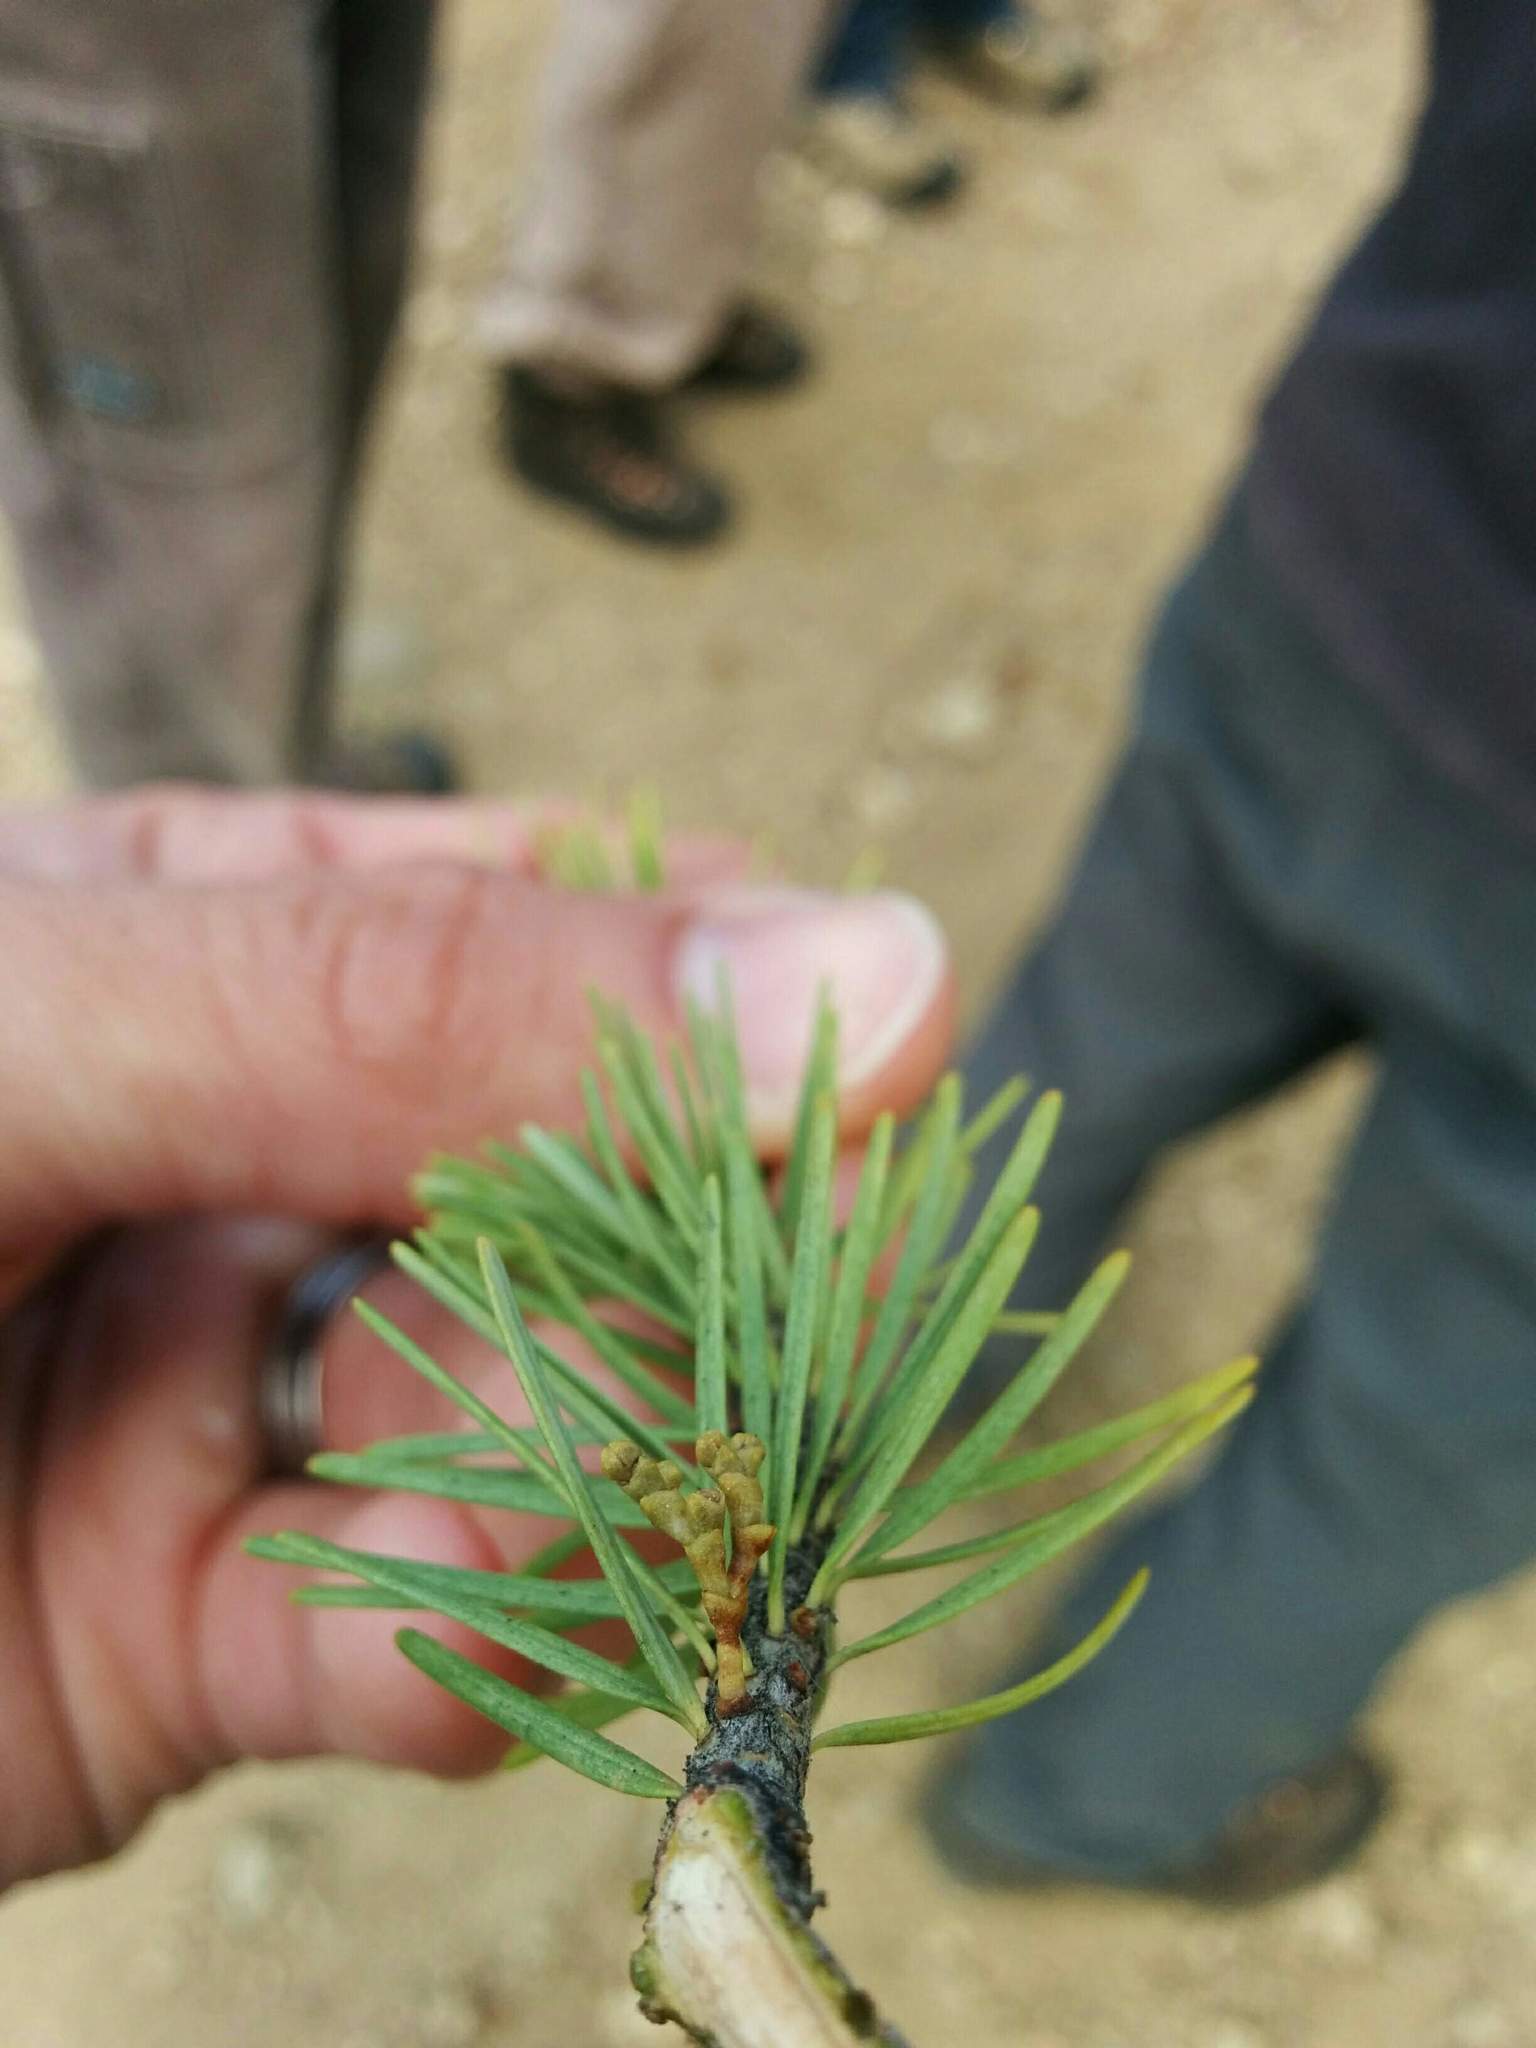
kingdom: Plantae
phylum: Tracheophyta
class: Magnoliopsida
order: Santalales
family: Viscaceae
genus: Arceuthobium
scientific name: Arceuthobium douglasii
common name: Douglas' dwarf mistletoe
